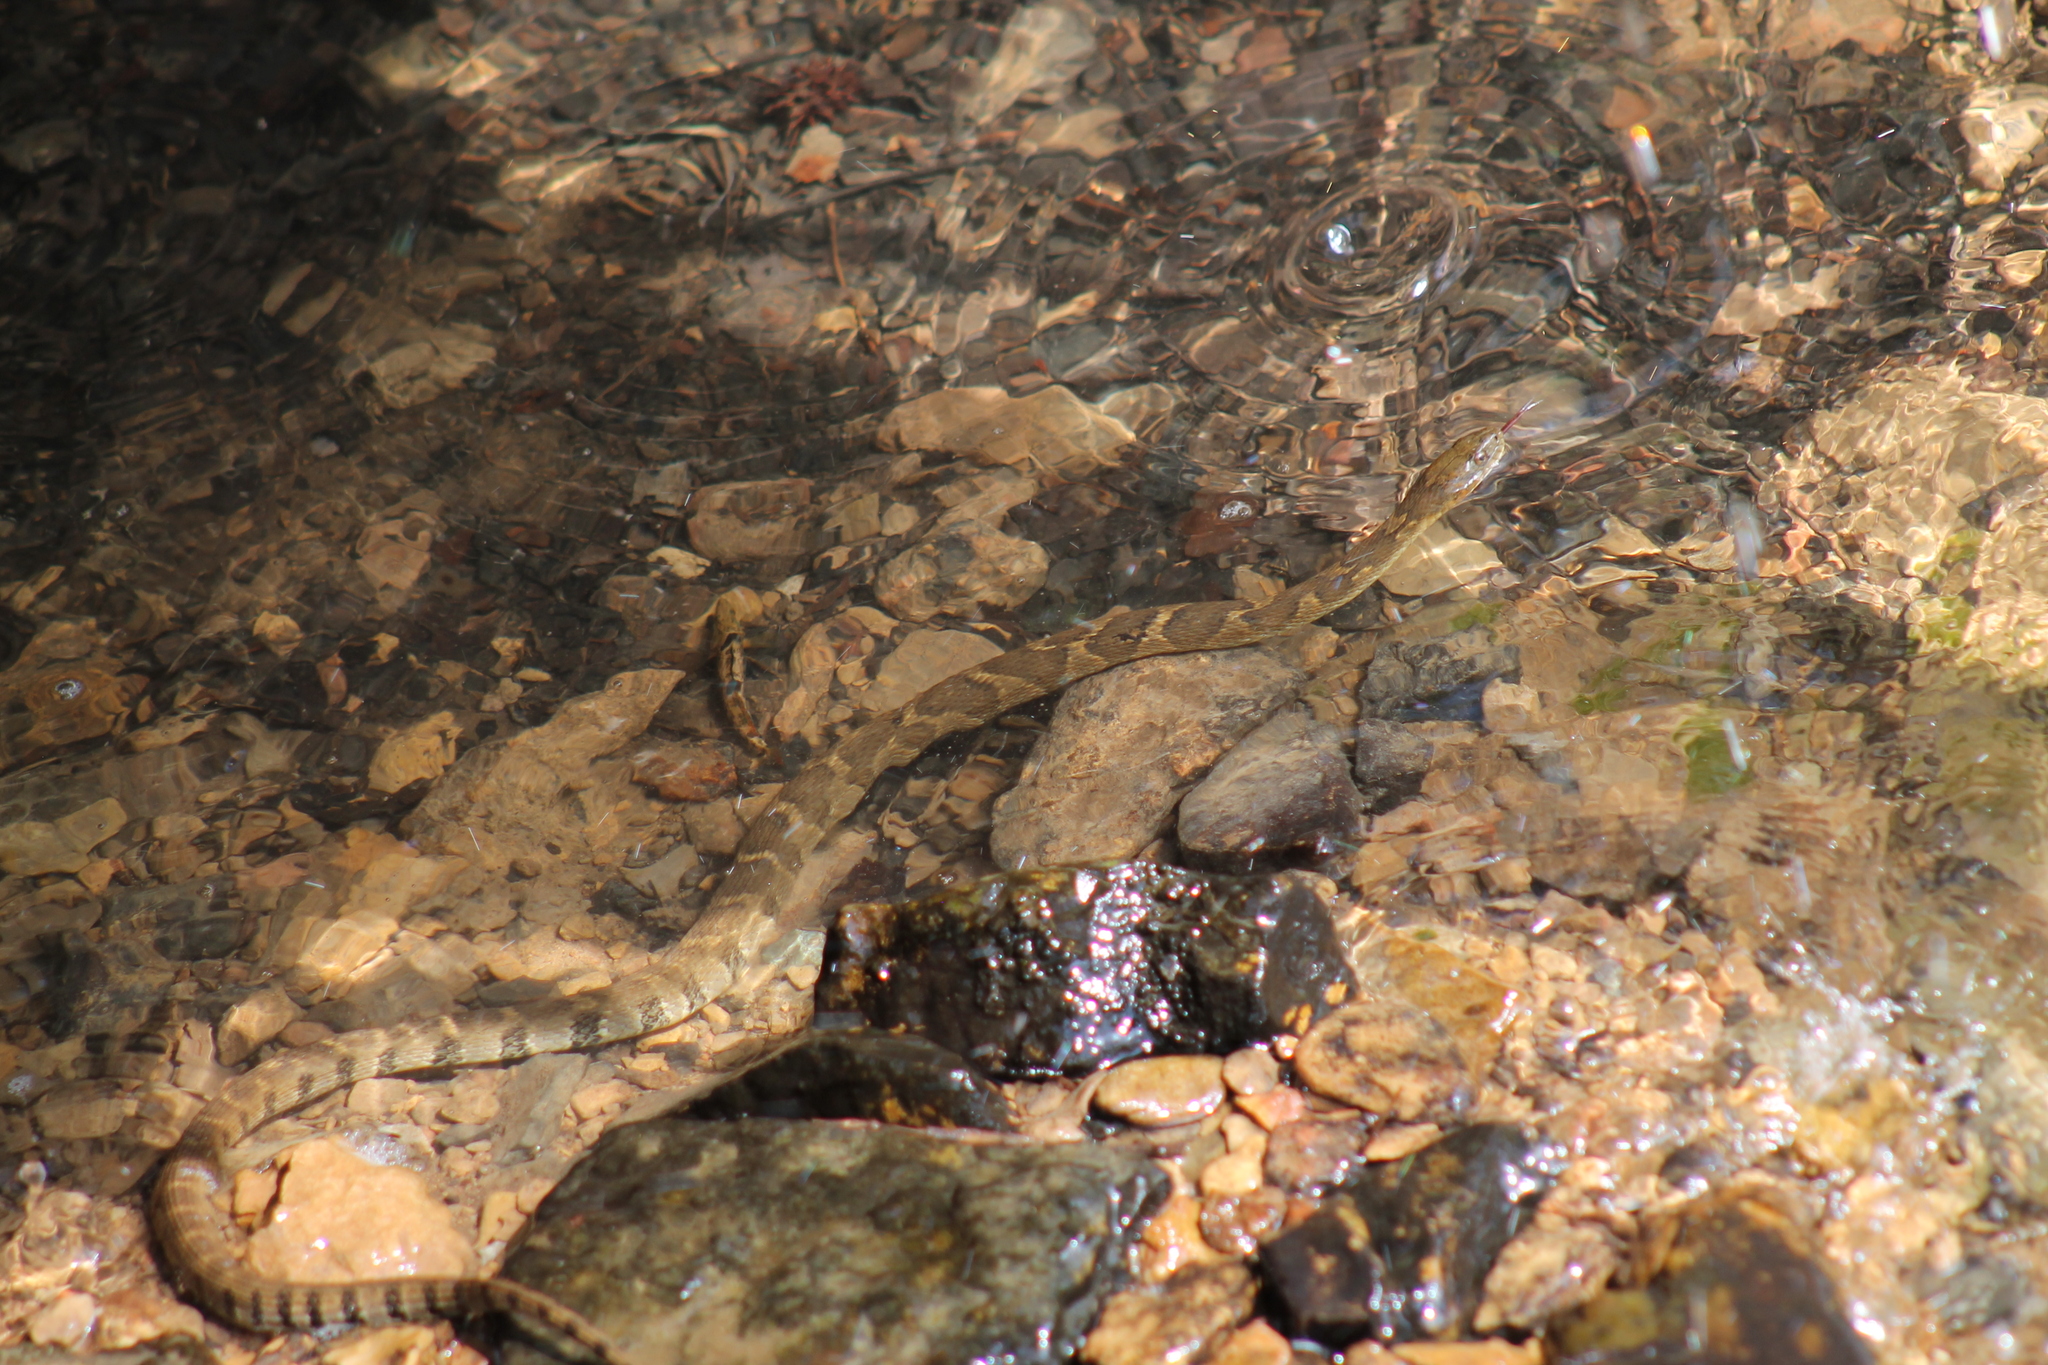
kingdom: Animalia
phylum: Chordata
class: Squamata
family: Colubridae
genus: Nerodia
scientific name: Nerodia sipedon
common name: Northern water snake
